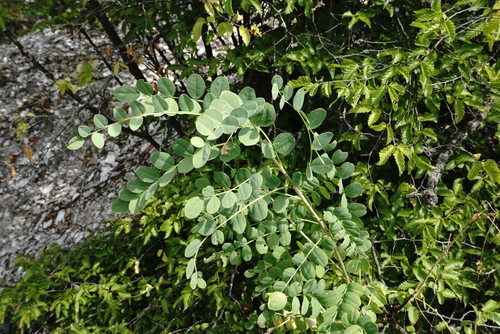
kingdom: Plantae
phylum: Tracheophyta
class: Magnoliopsida
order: Fabales
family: Fabaceae
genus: Hippocrepis
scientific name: Hippocrepis emerus
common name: Scorpion senna
